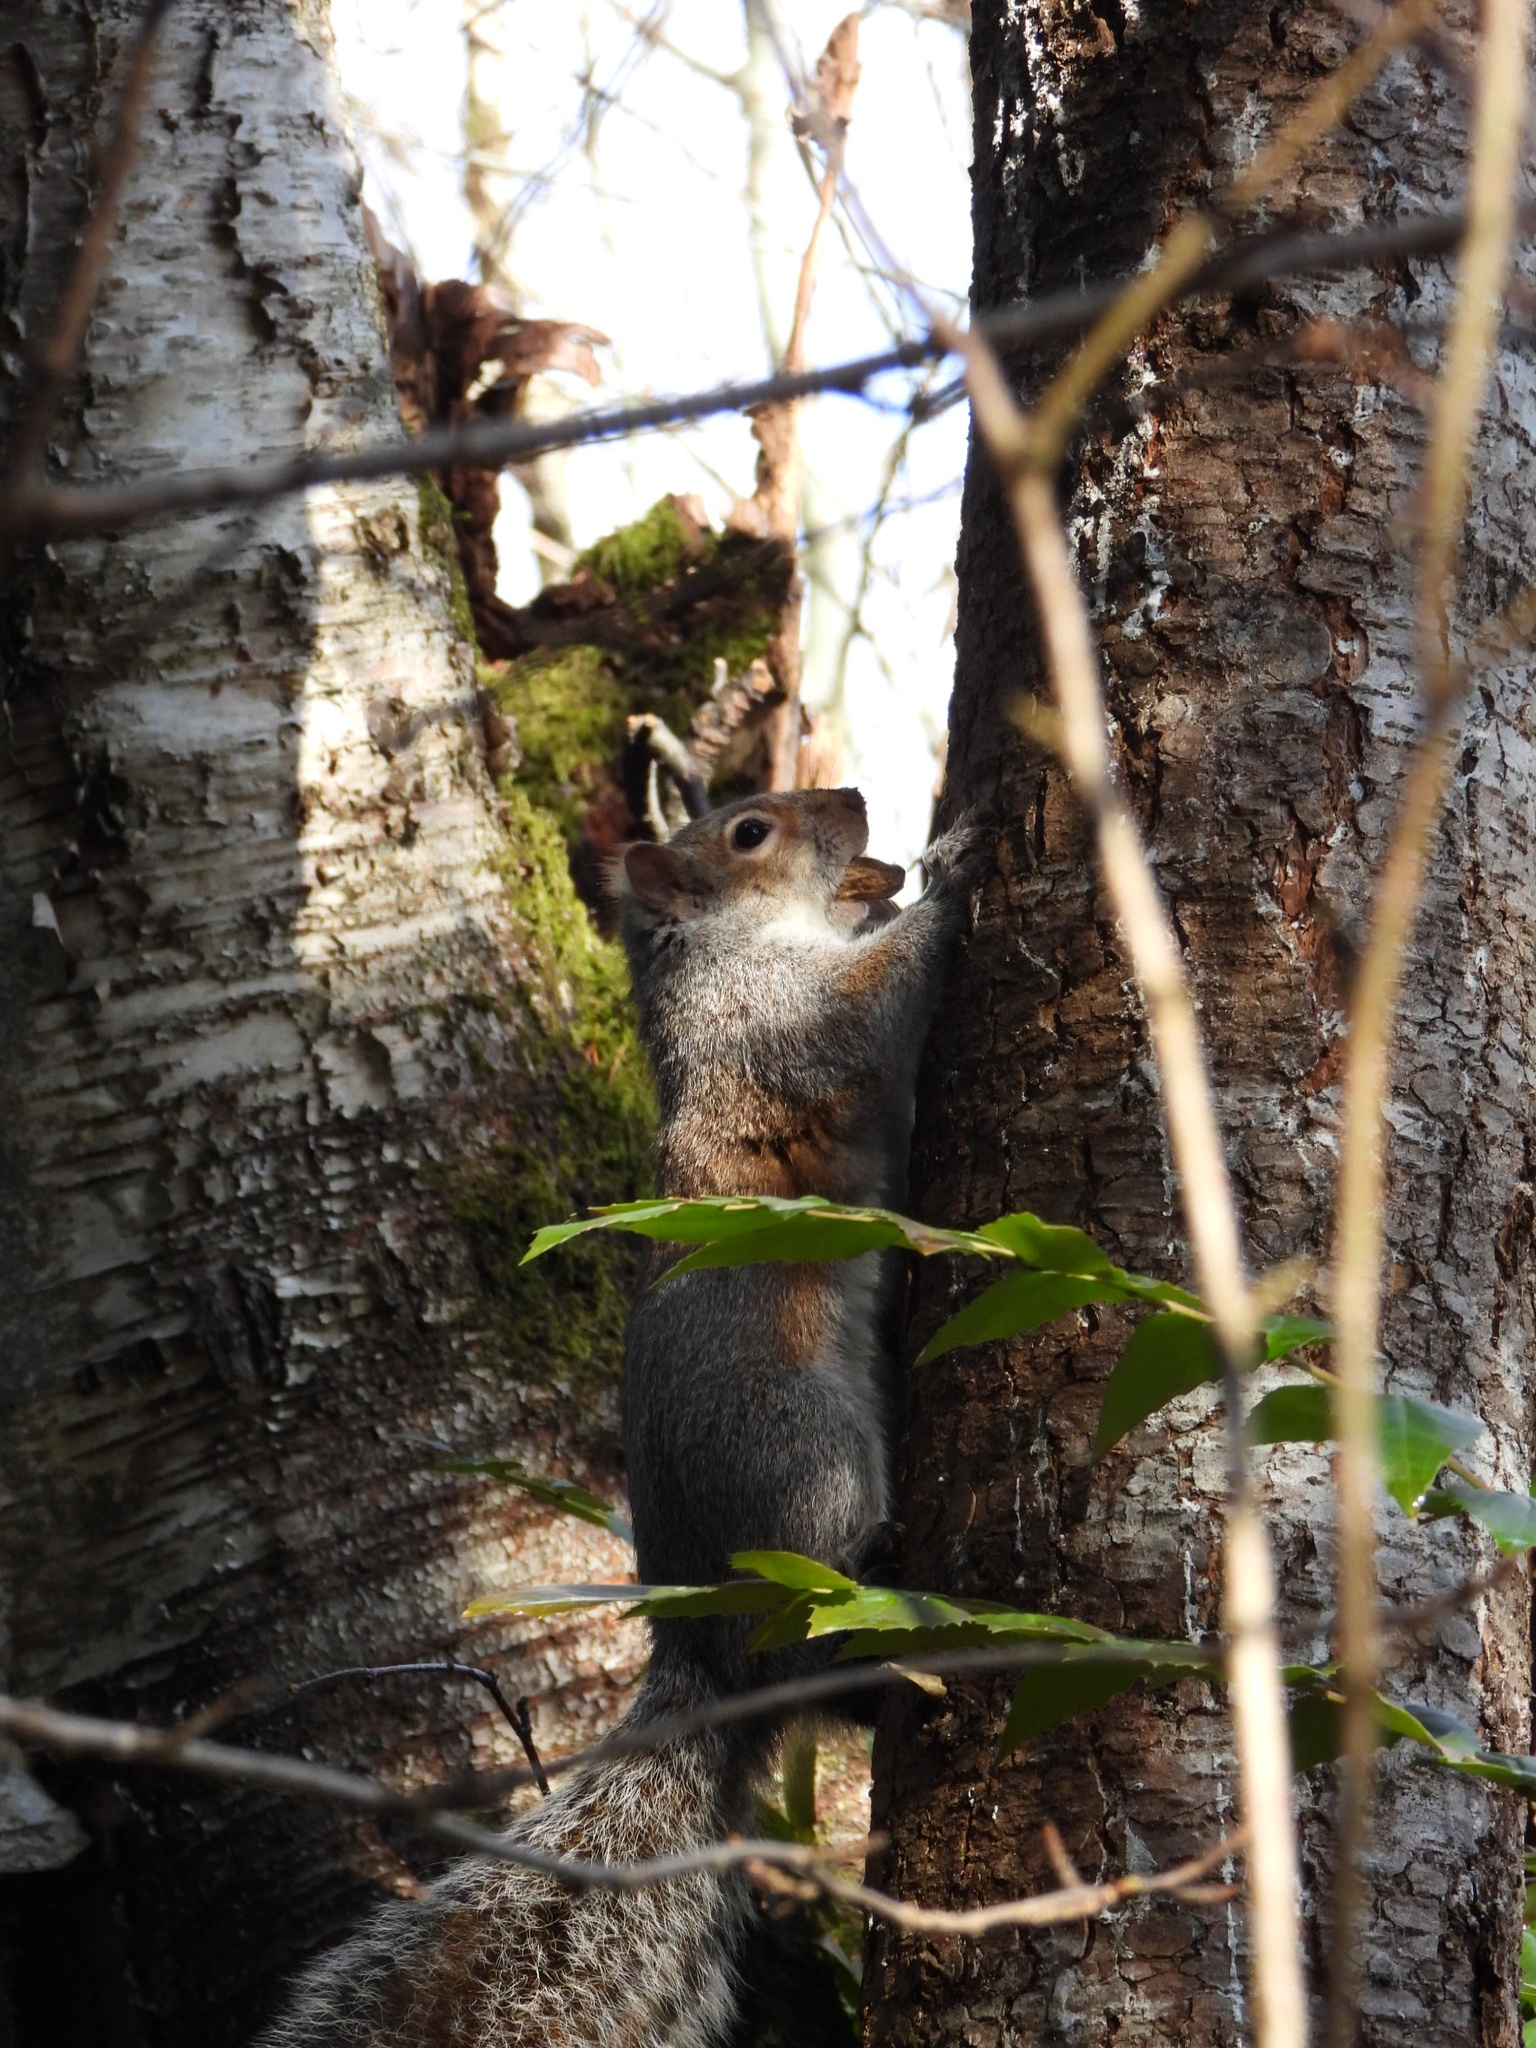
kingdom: Animalia
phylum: Chordata
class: Mammalia
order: Rodentia
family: Sciuridae
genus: Sciurus
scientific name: Sciurus carolinensis
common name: Eastern gray squirrel
